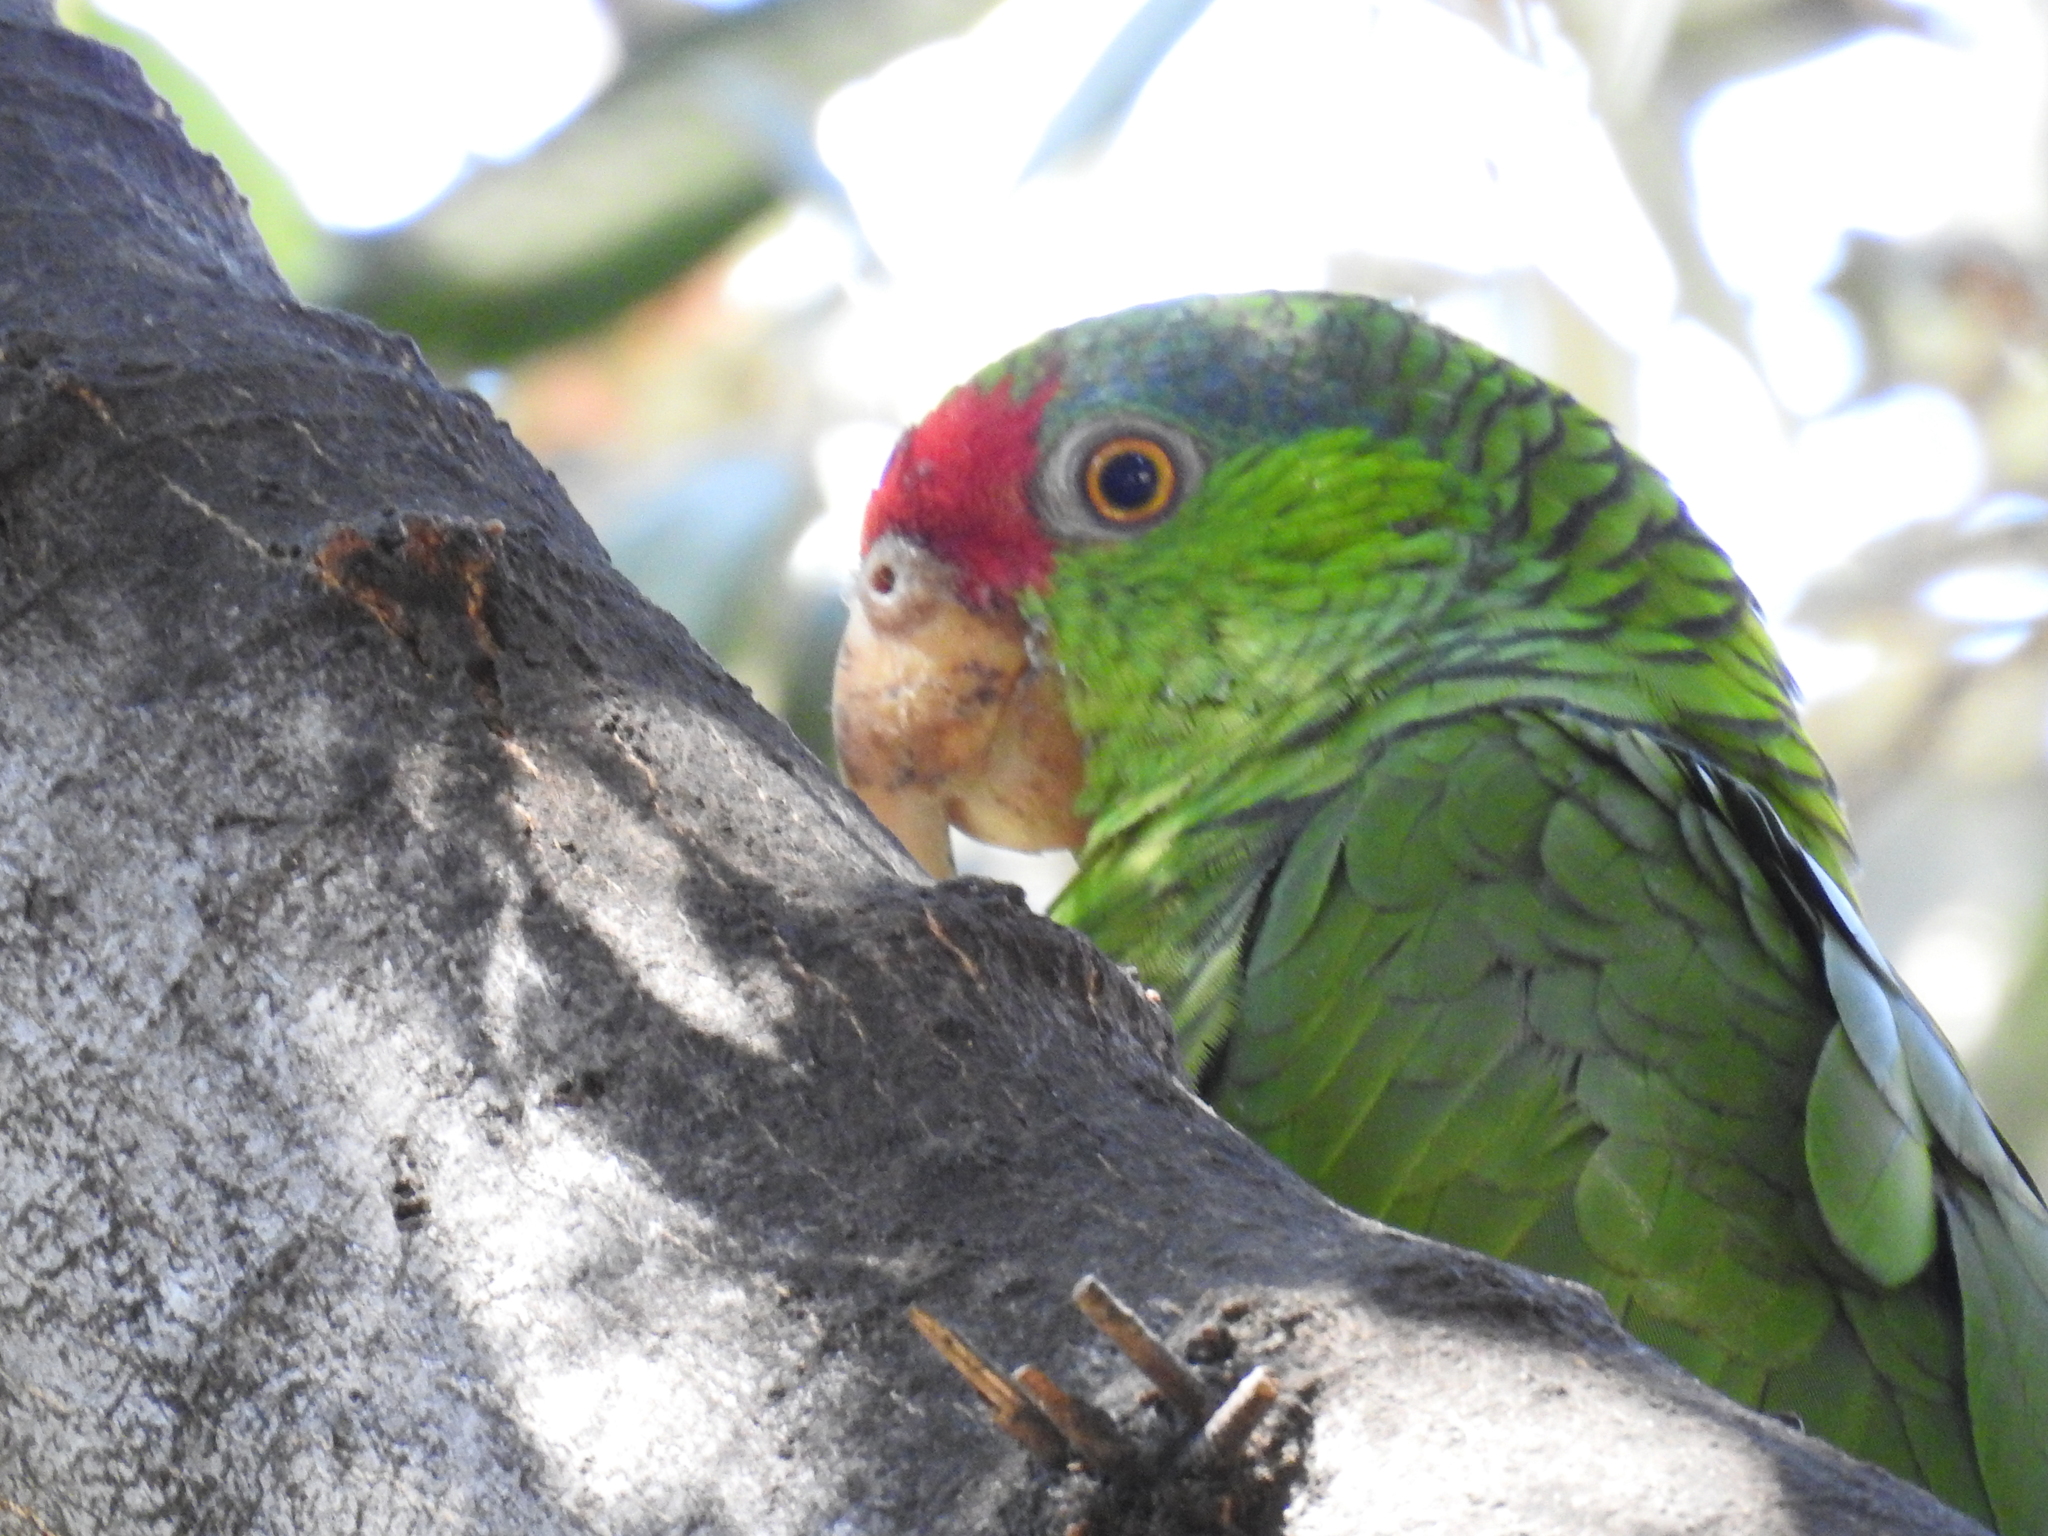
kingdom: Animalia
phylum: Chordata
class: Aves
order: Psittaciformes
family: Psittacidae
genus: Amazona
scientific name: Amazona viridigenalis
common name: Red-crowned amazon
